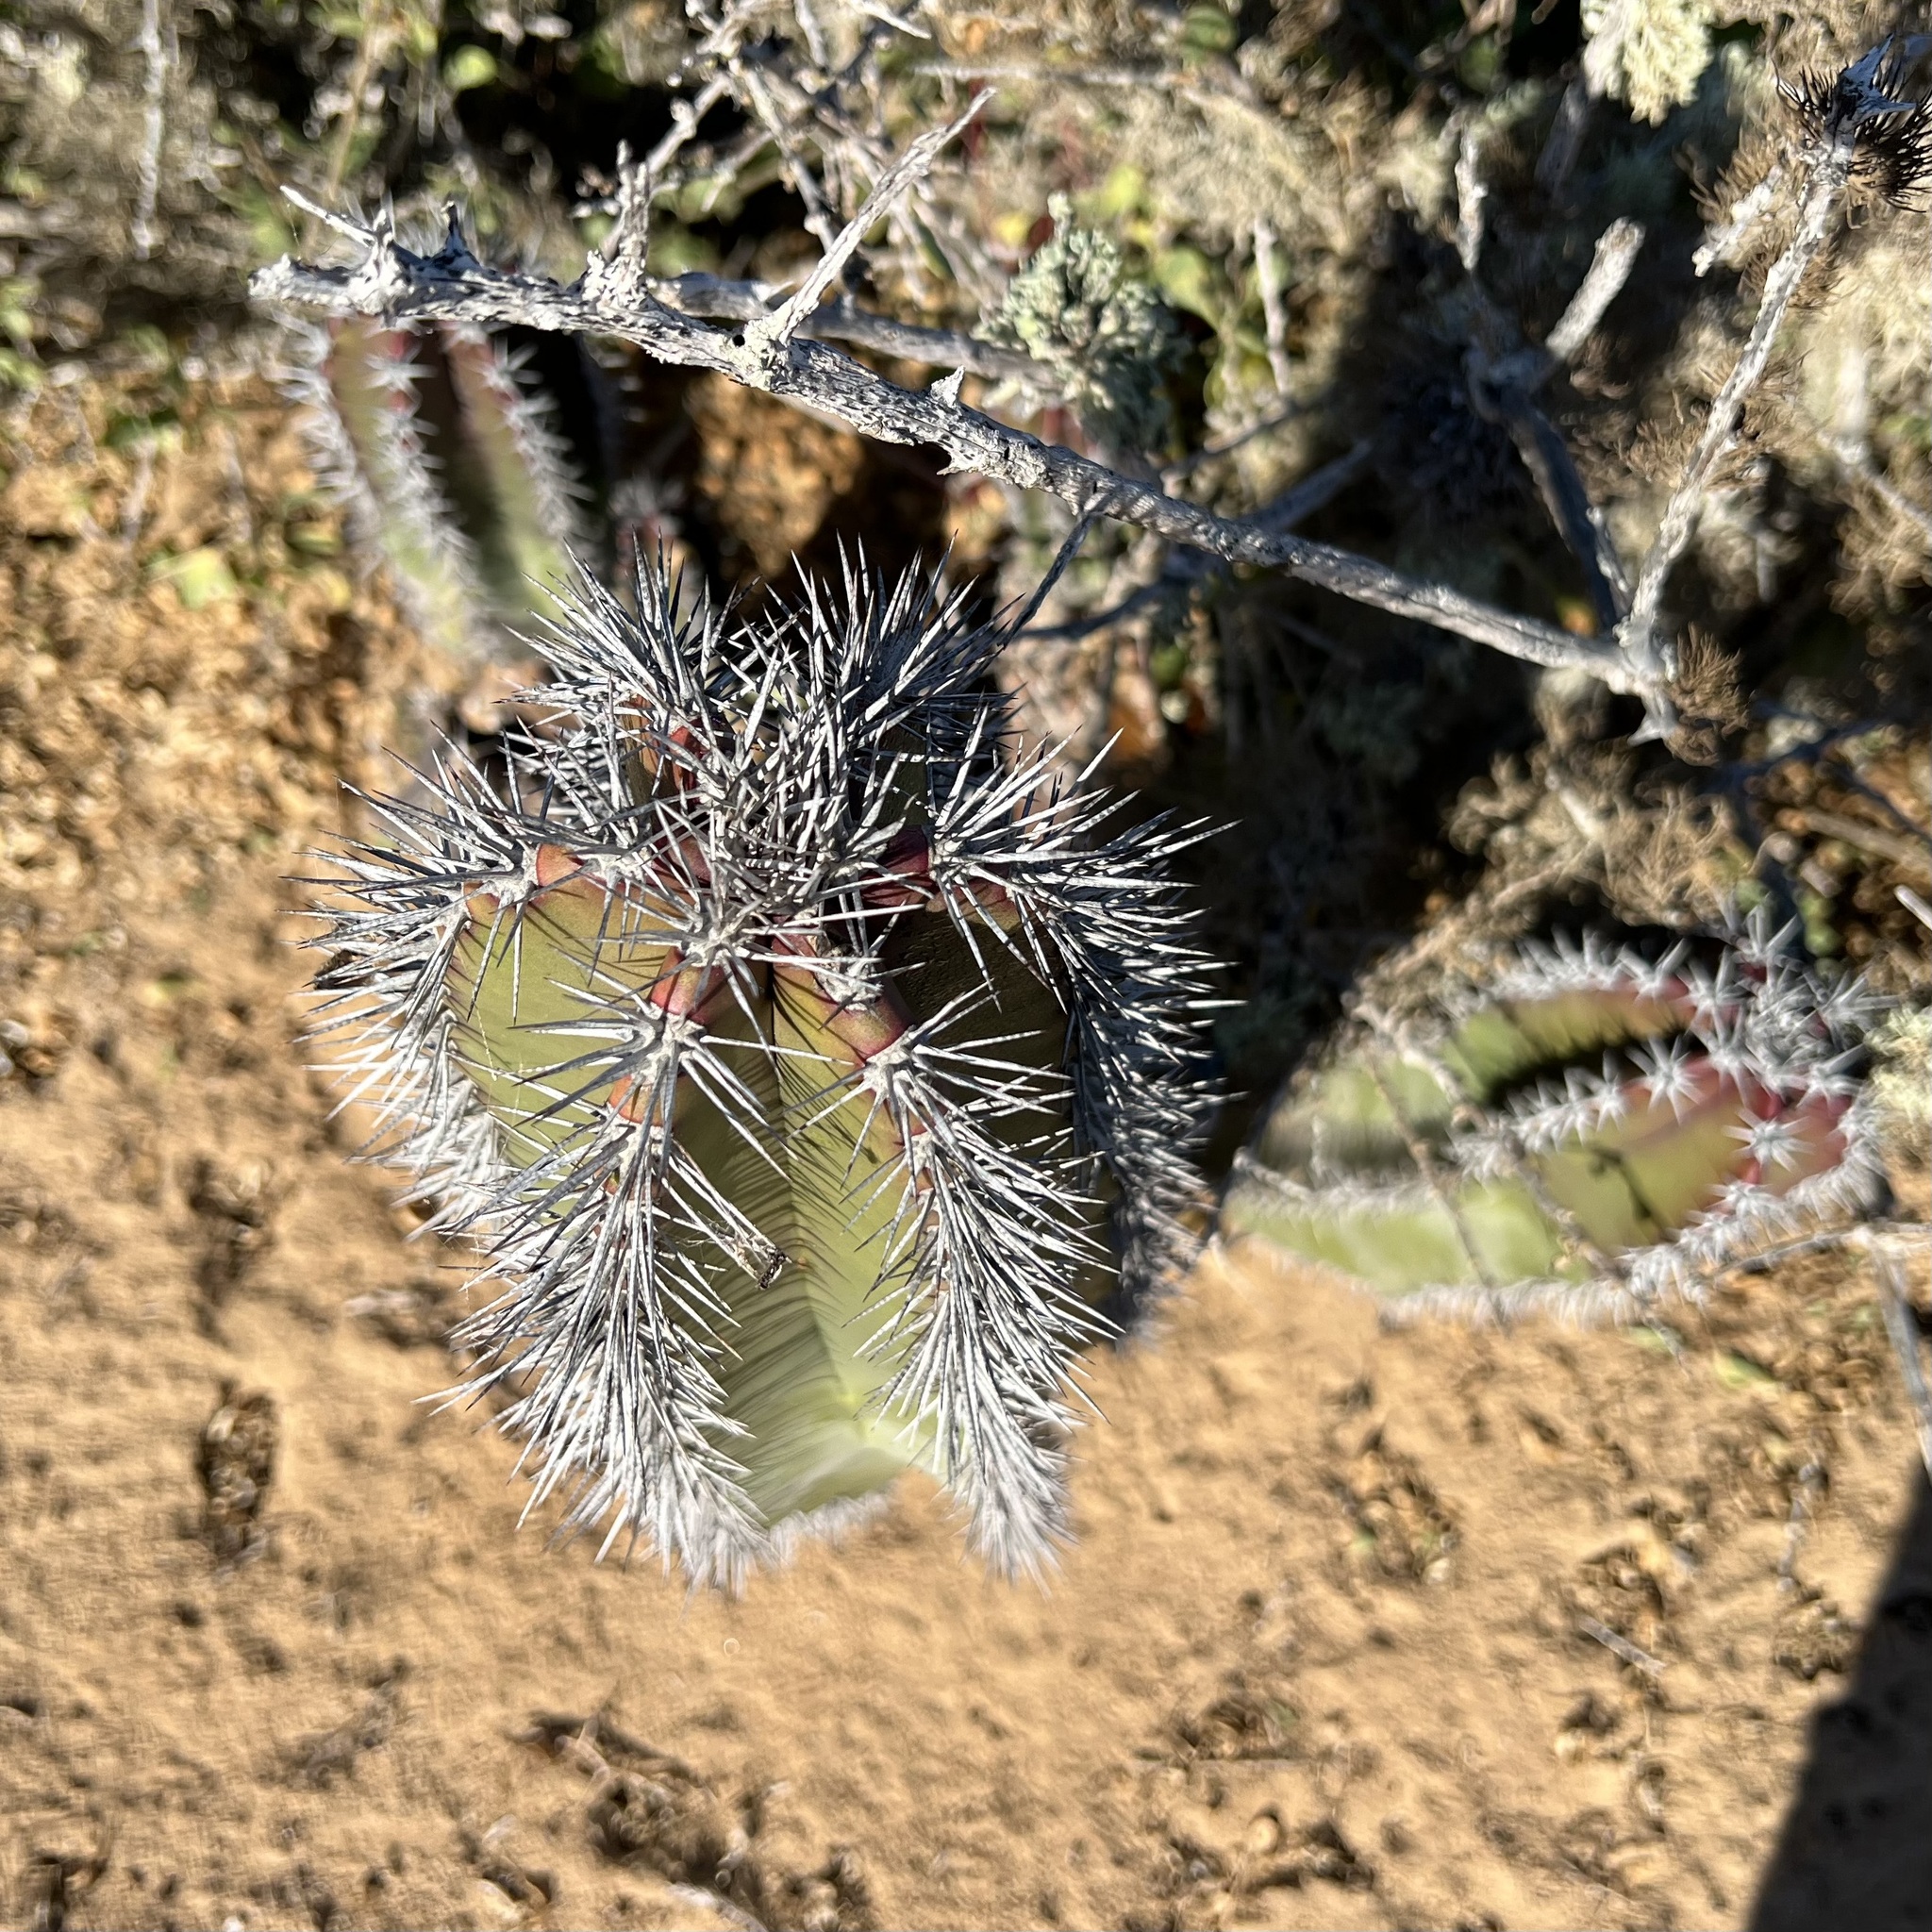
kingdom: Plantae
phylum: Tracheophyta
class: Magnoliopsida
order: Caryophyllales
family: Cactaceae
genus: Pachycereus
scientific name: Pachycereus schottii
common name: Senita cactus
